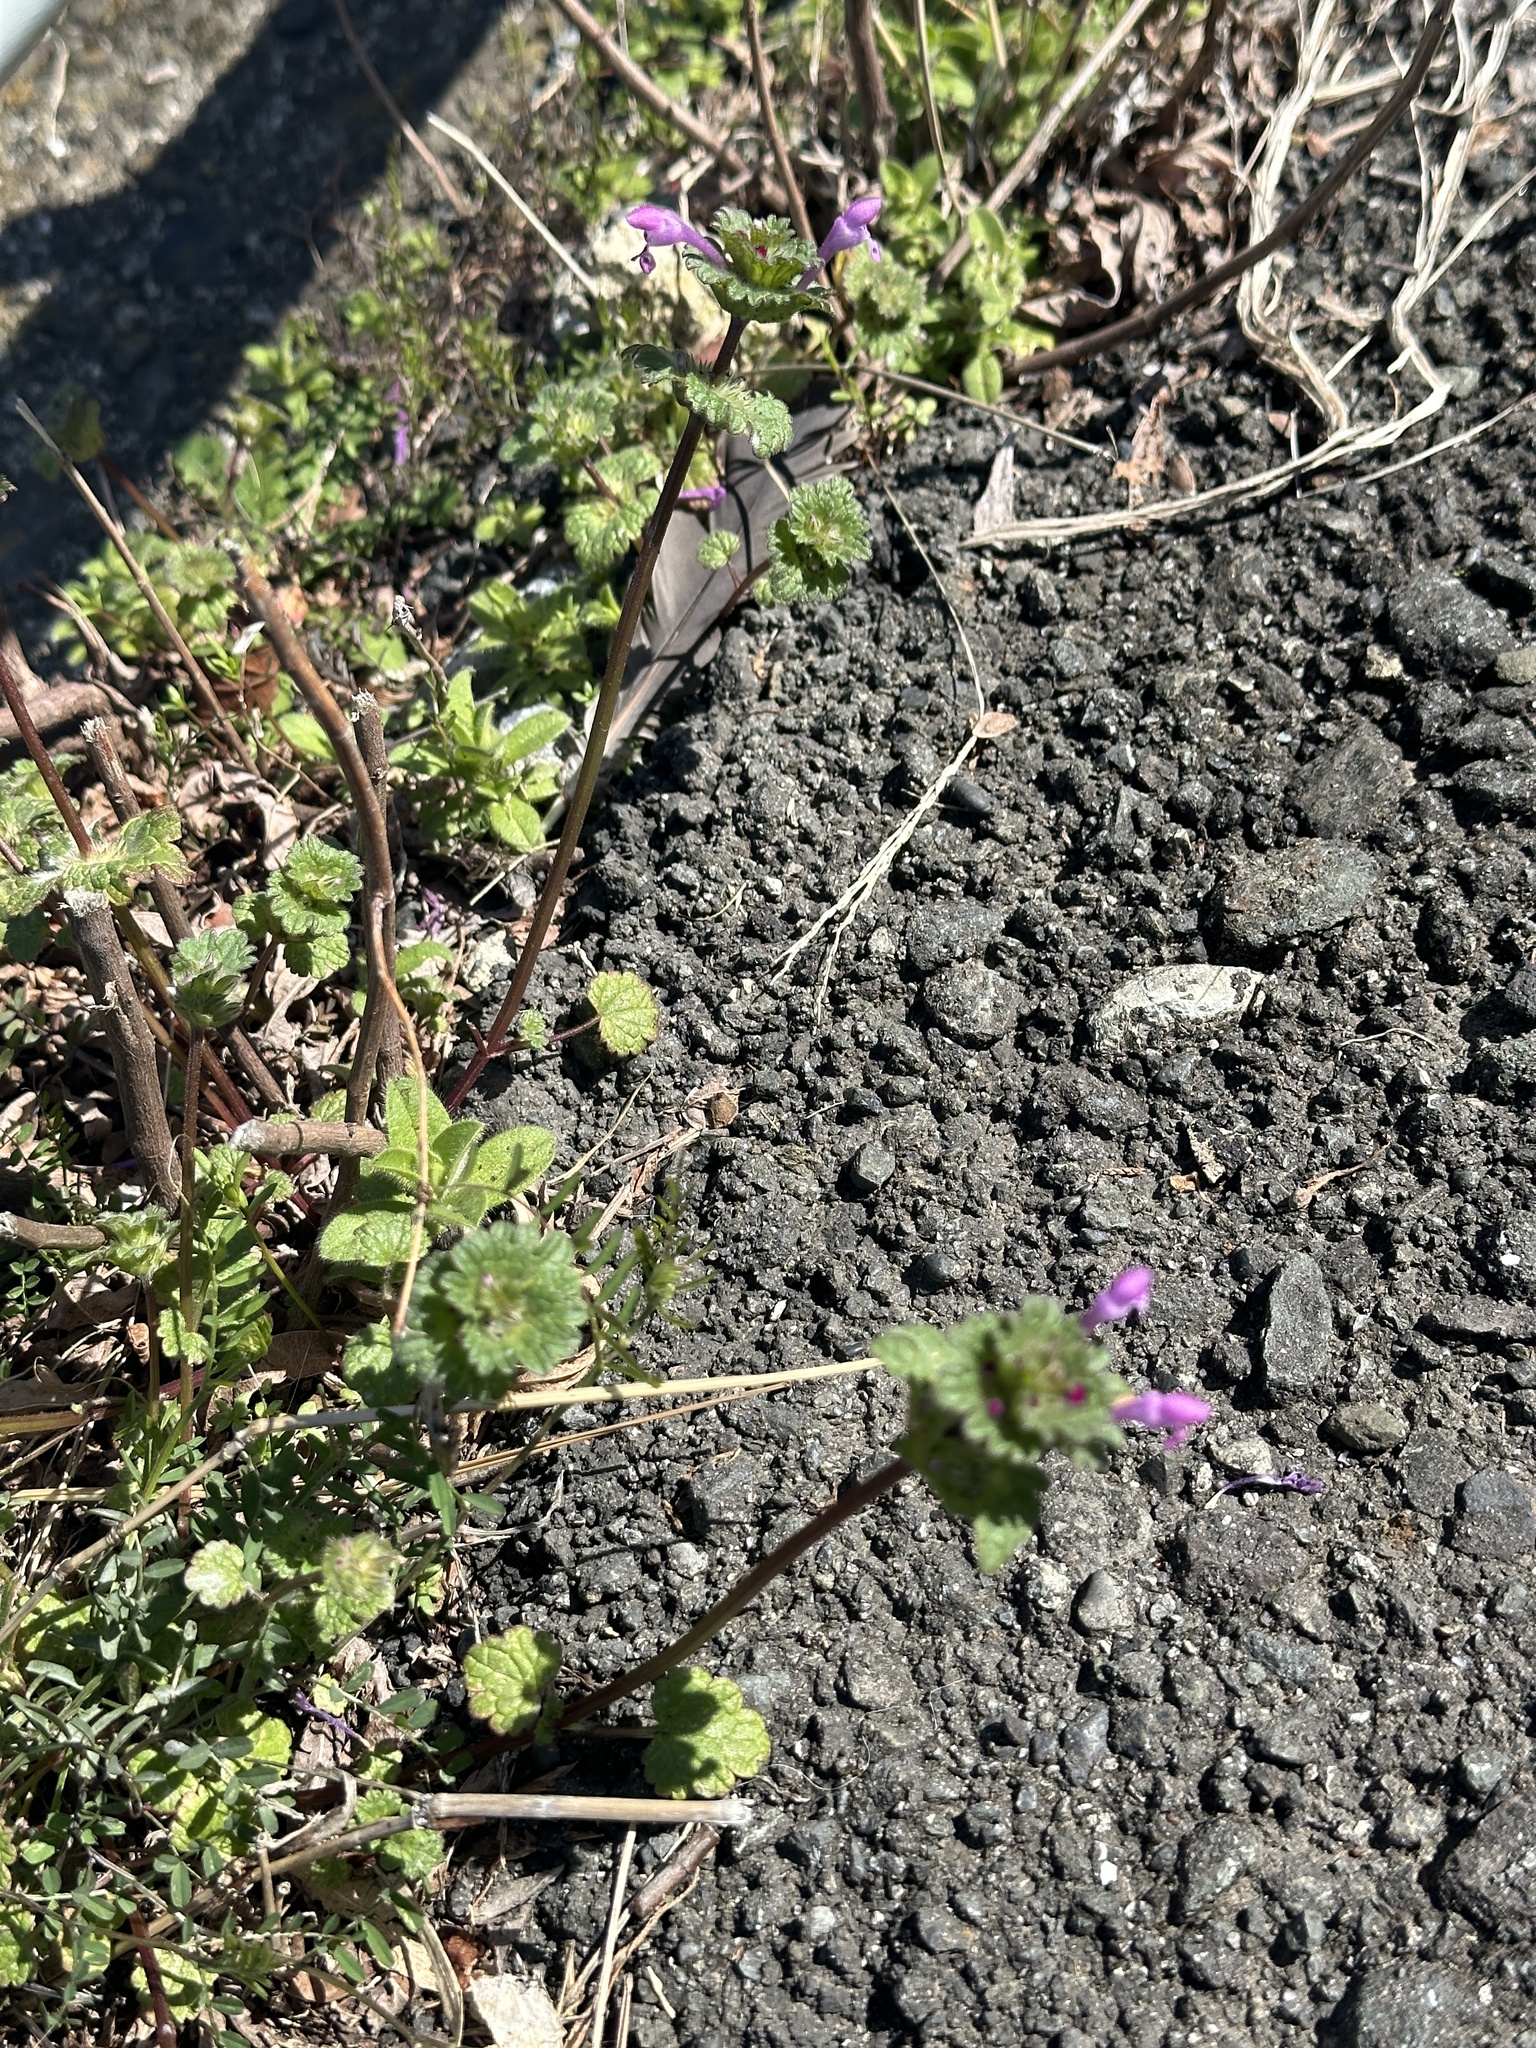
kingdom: Plantae
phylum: Tracheophyta
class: Magnoliopsida
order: Lamiales
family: Lamiaceae
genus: Lamium
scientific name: Lamium amplexicaule
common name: Henbit dead-nettle
